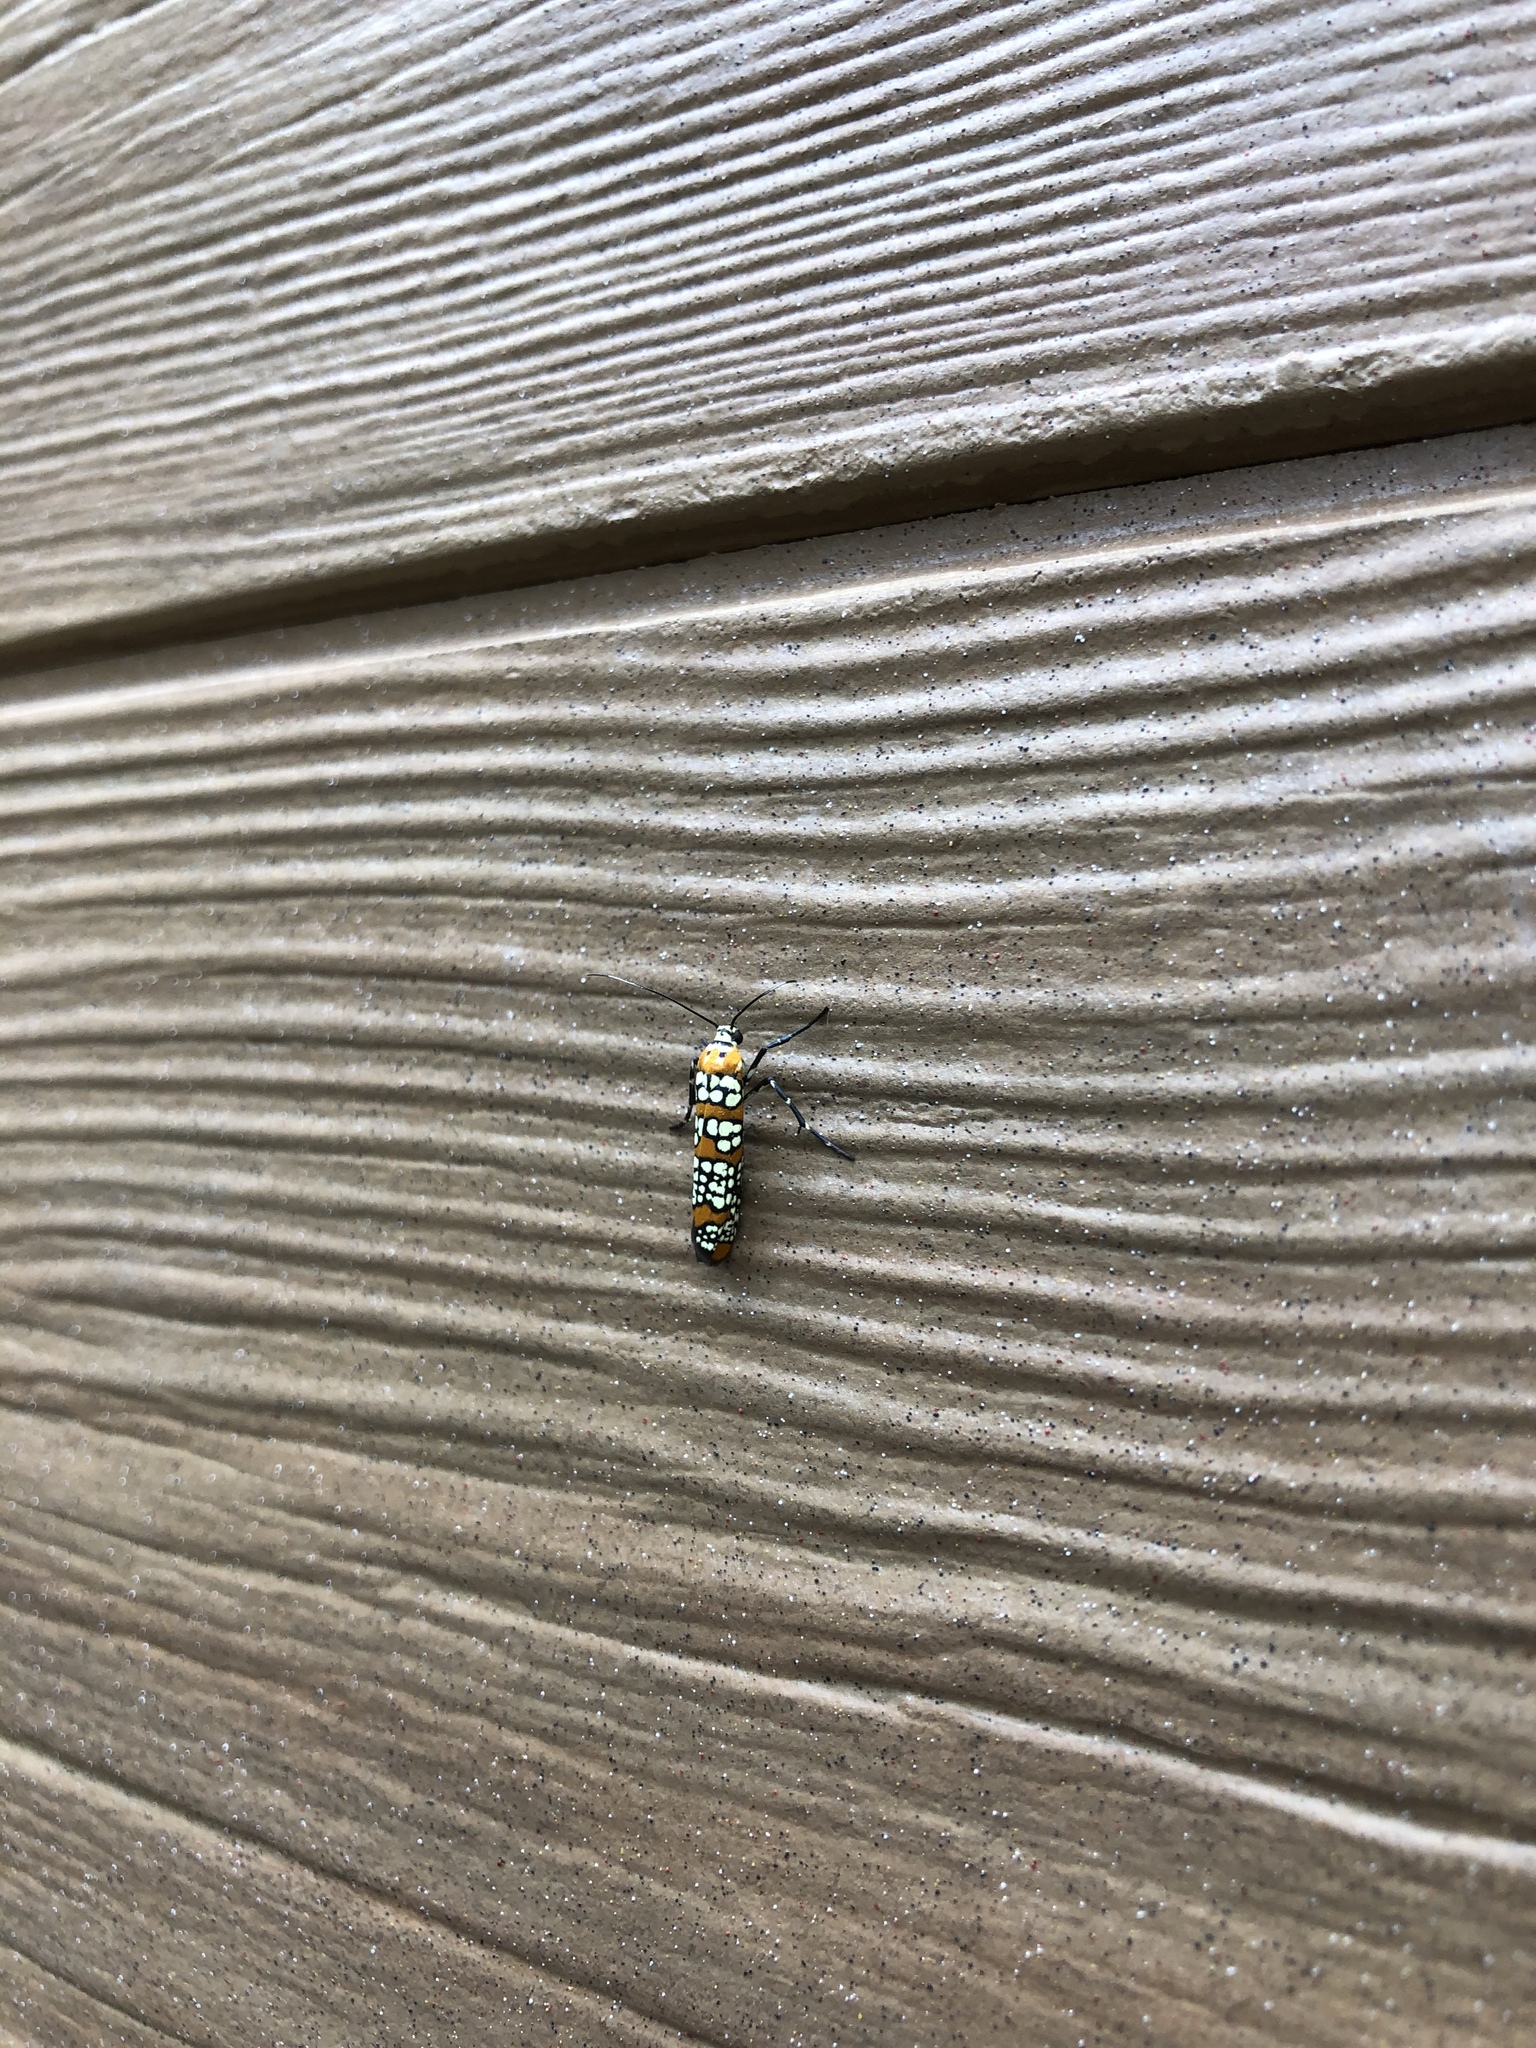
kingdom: Animalia
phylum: Arthropoda
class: Insecta
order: Lepidoptera
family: Attevidae
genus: Atteva
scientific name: Atteva punctella
